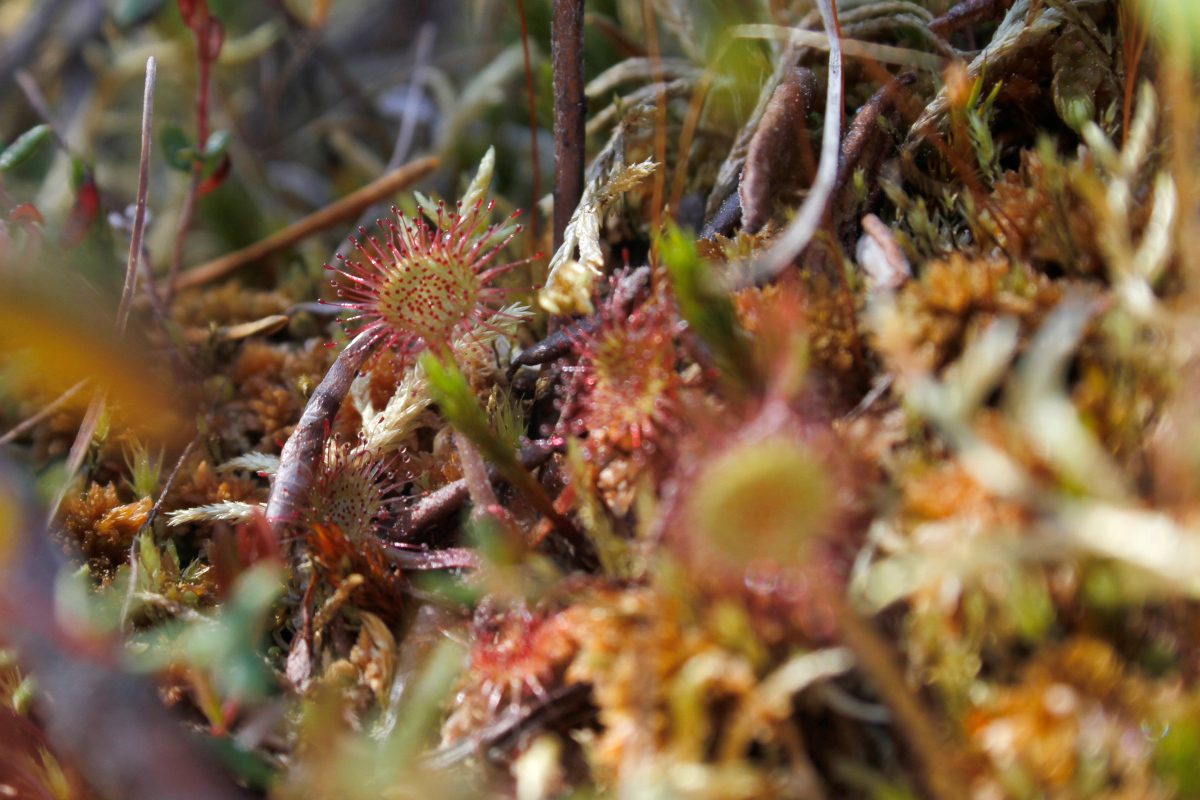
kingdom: Plantae
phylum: Tracheophyta
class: Magnoliopsida
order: Caryophyllales
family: Droseraceae
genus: Drosera
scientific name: Drosera rotundifolia
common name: Round-leaved sundew
